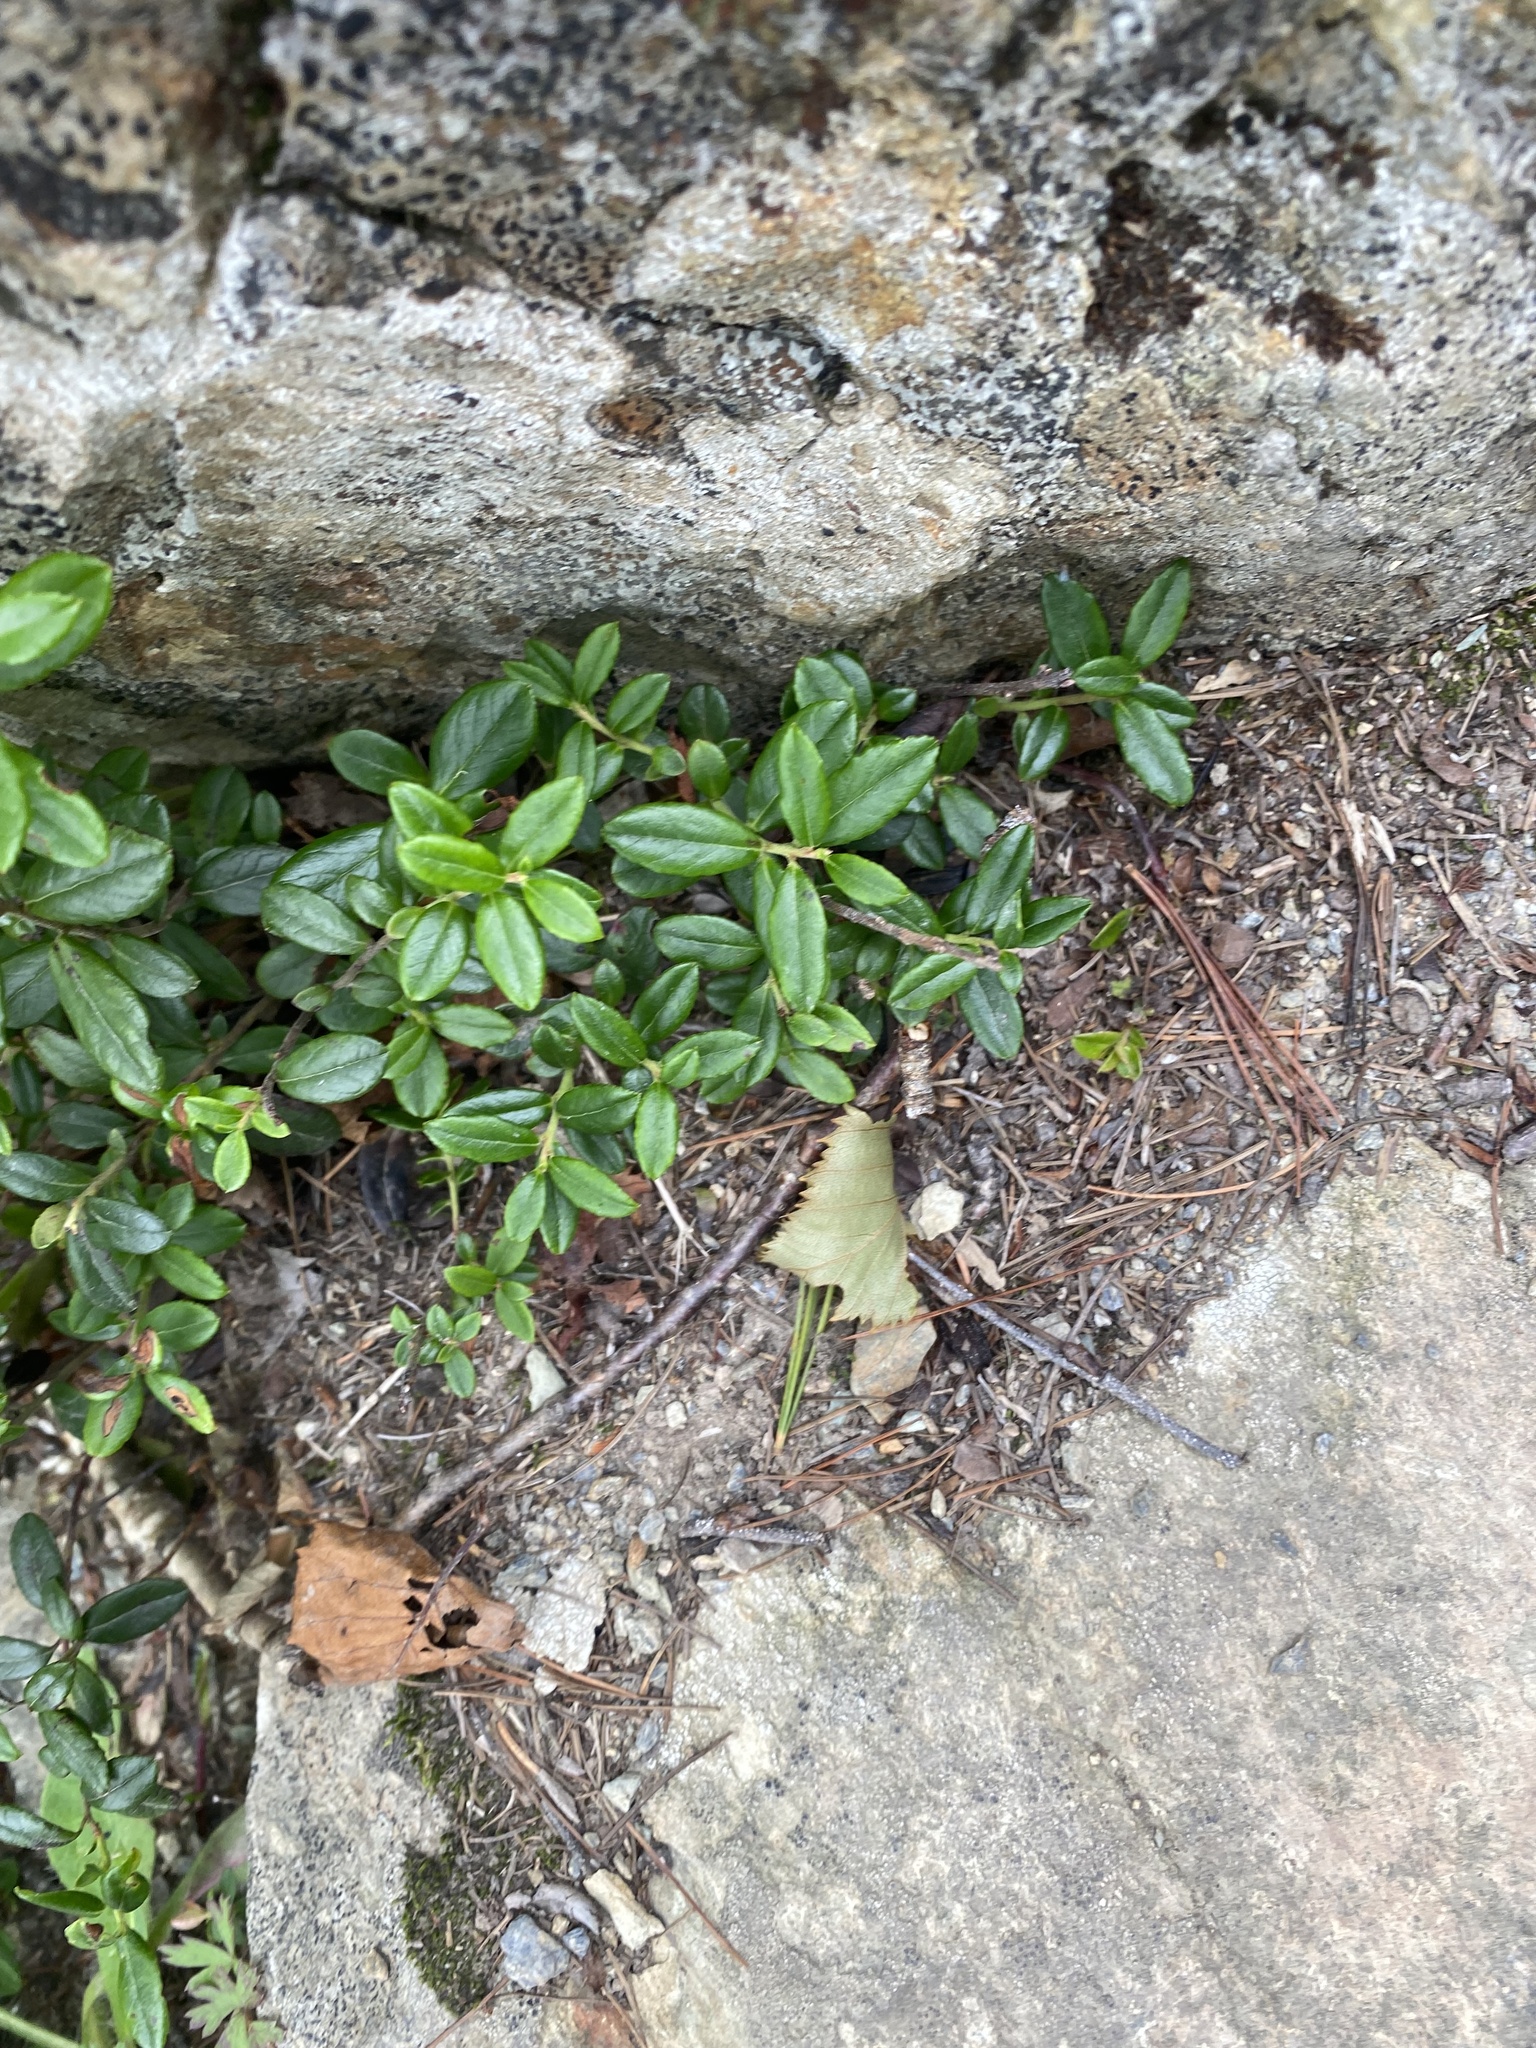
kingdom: Plantae
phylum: Tracheophyta
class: Magnoliopsida
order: Ericales
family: Ericaceae
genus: Vaccinium
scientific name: Vaccinium vitis-idaea
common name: Cowberry
